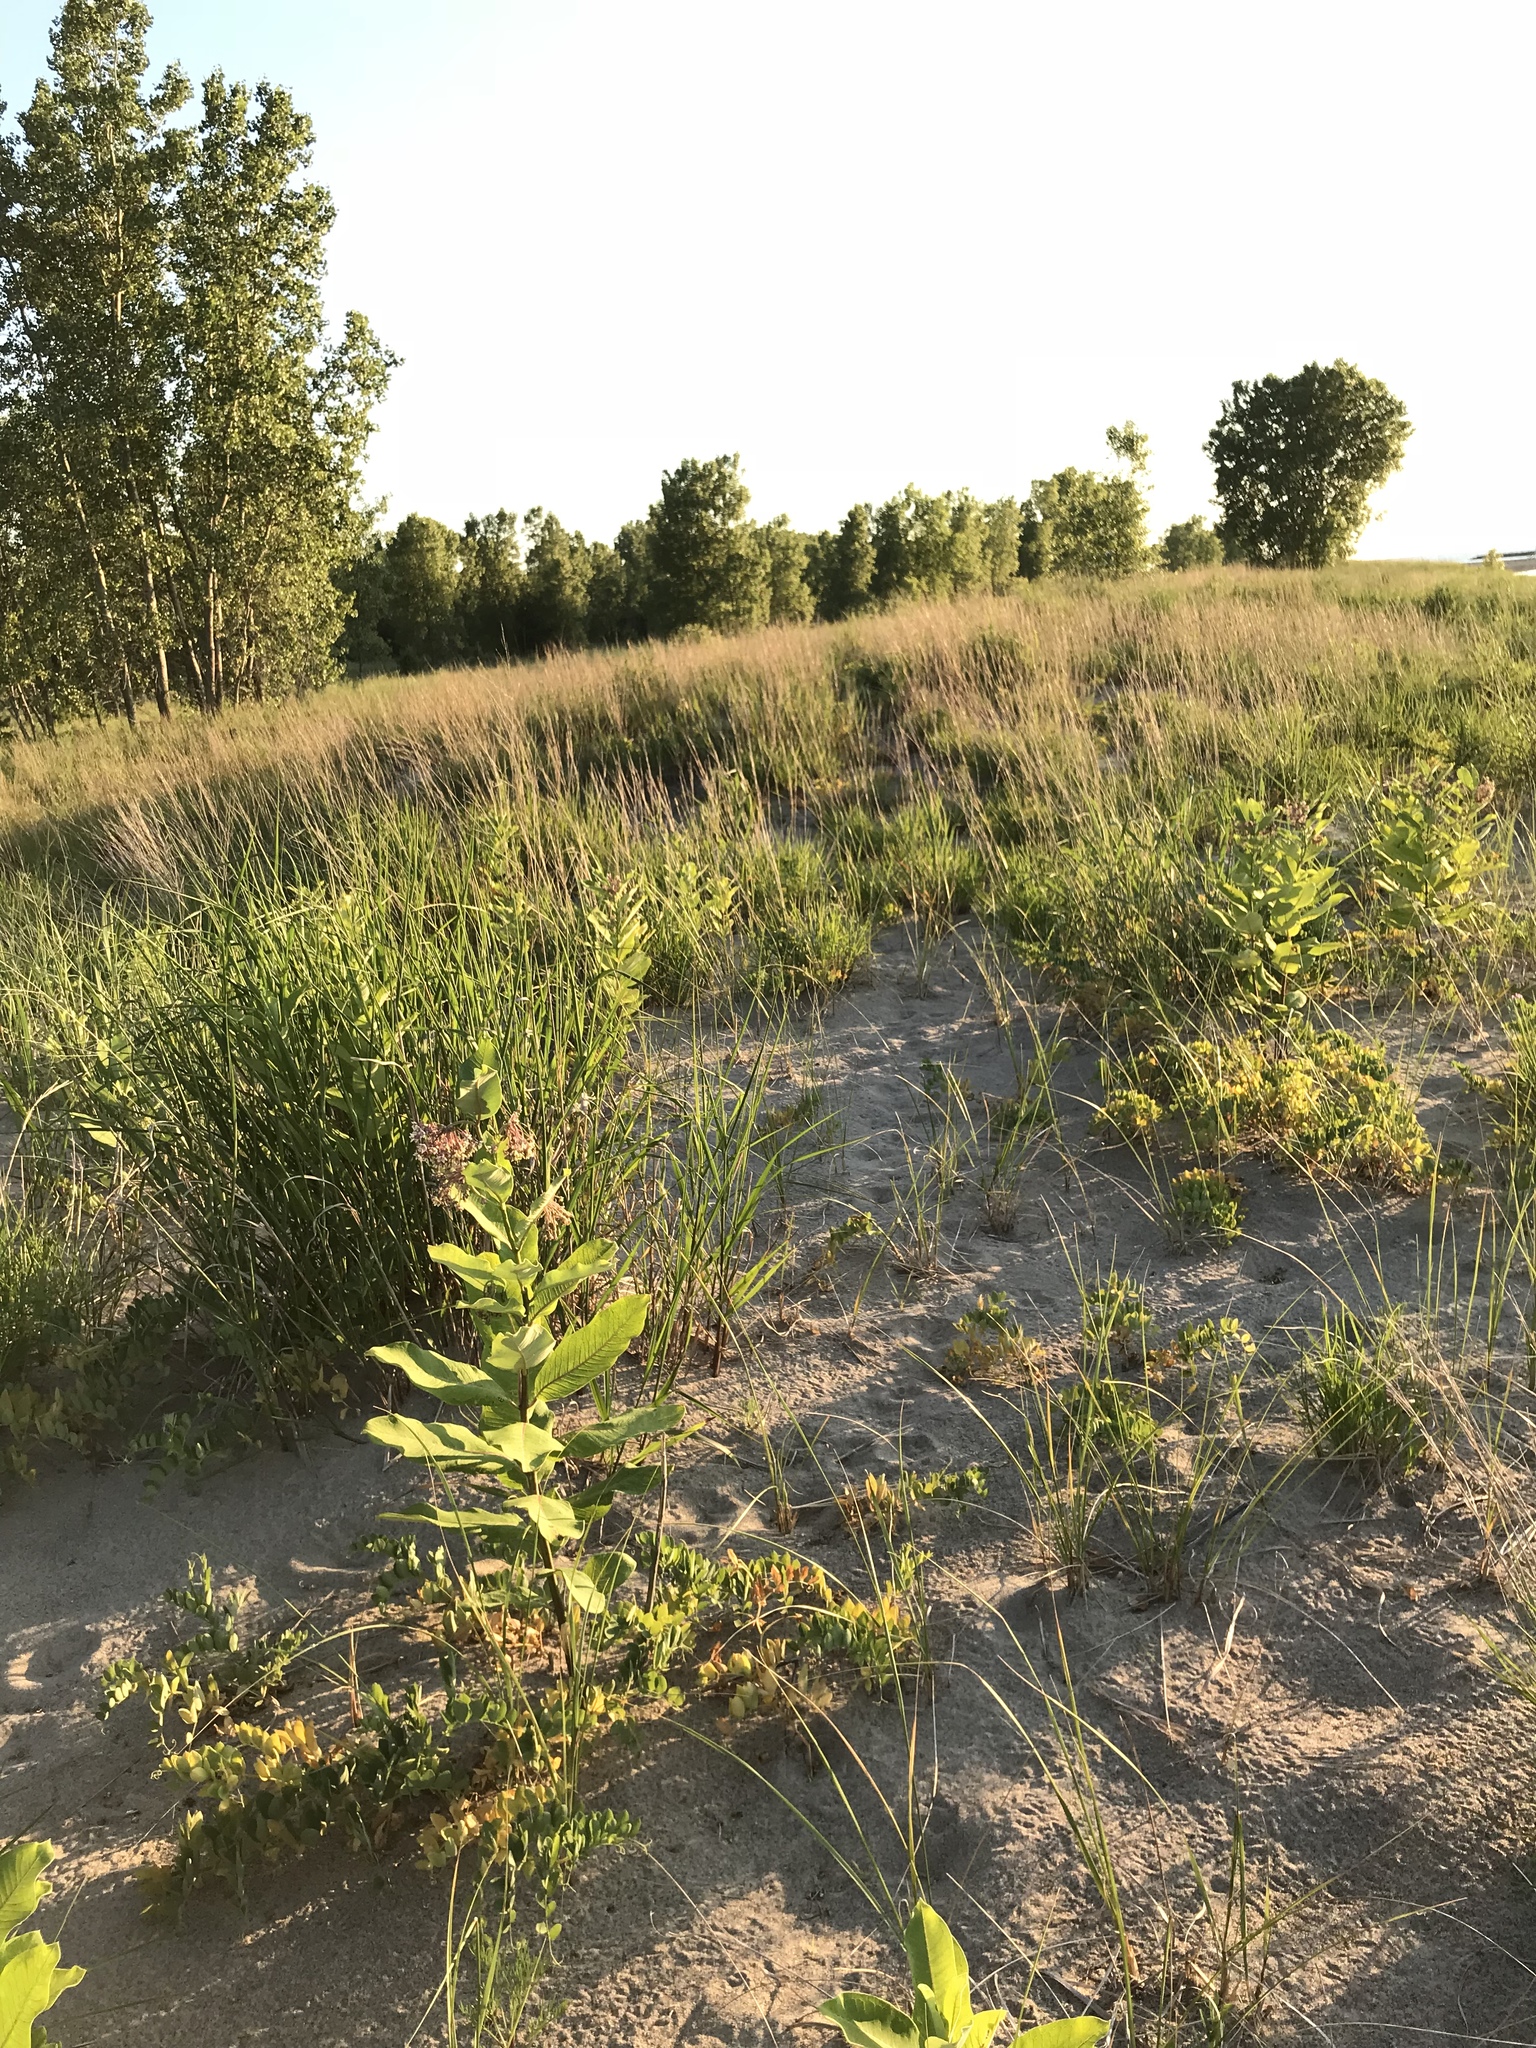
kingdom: Plantae
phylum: Tracheophyta
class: Magnoliopsida
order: Gentianales
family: Apocynaceae
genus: Asclepias
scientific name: Asclepias syriaca
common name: Common milkweed
